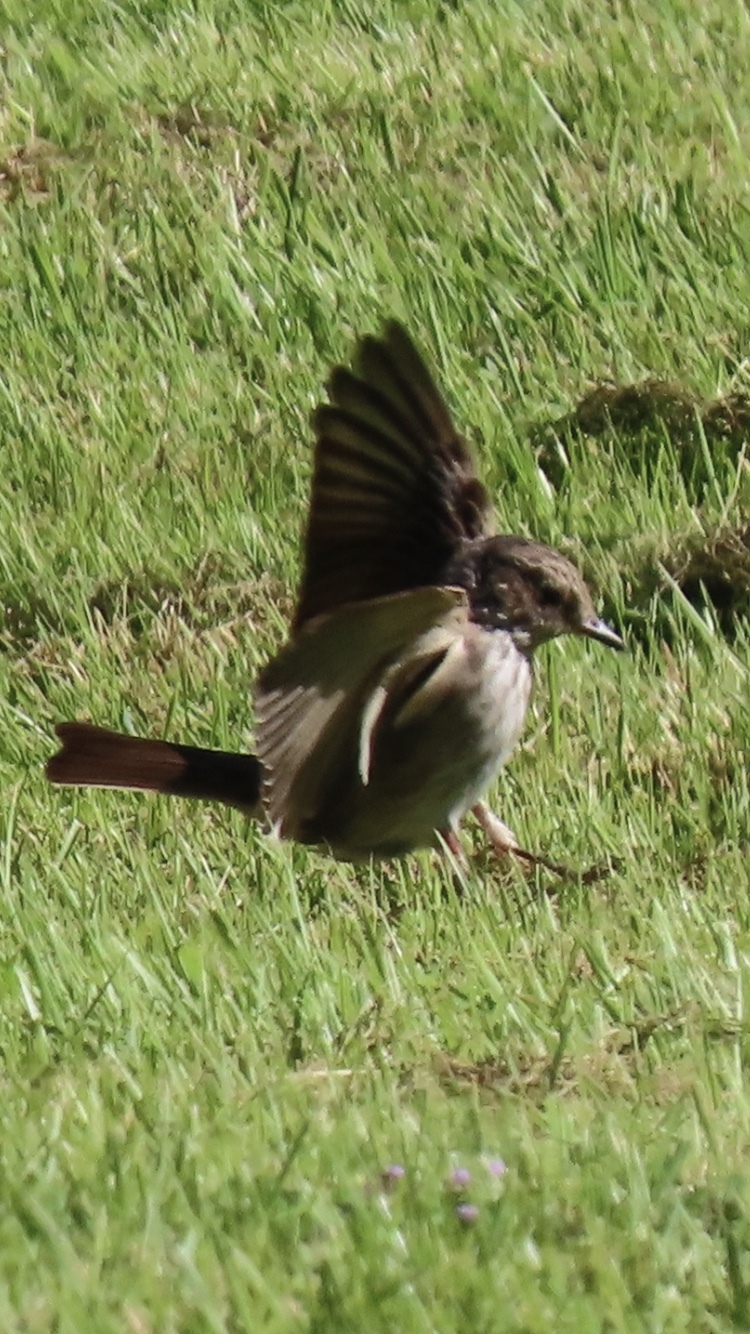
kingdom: Animalia
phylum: Chordata
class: Aves
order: Passeriformes
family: Muscicapidae
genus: Muscicapa
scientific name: Muscicapa striata
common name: Spotted flycatcher
